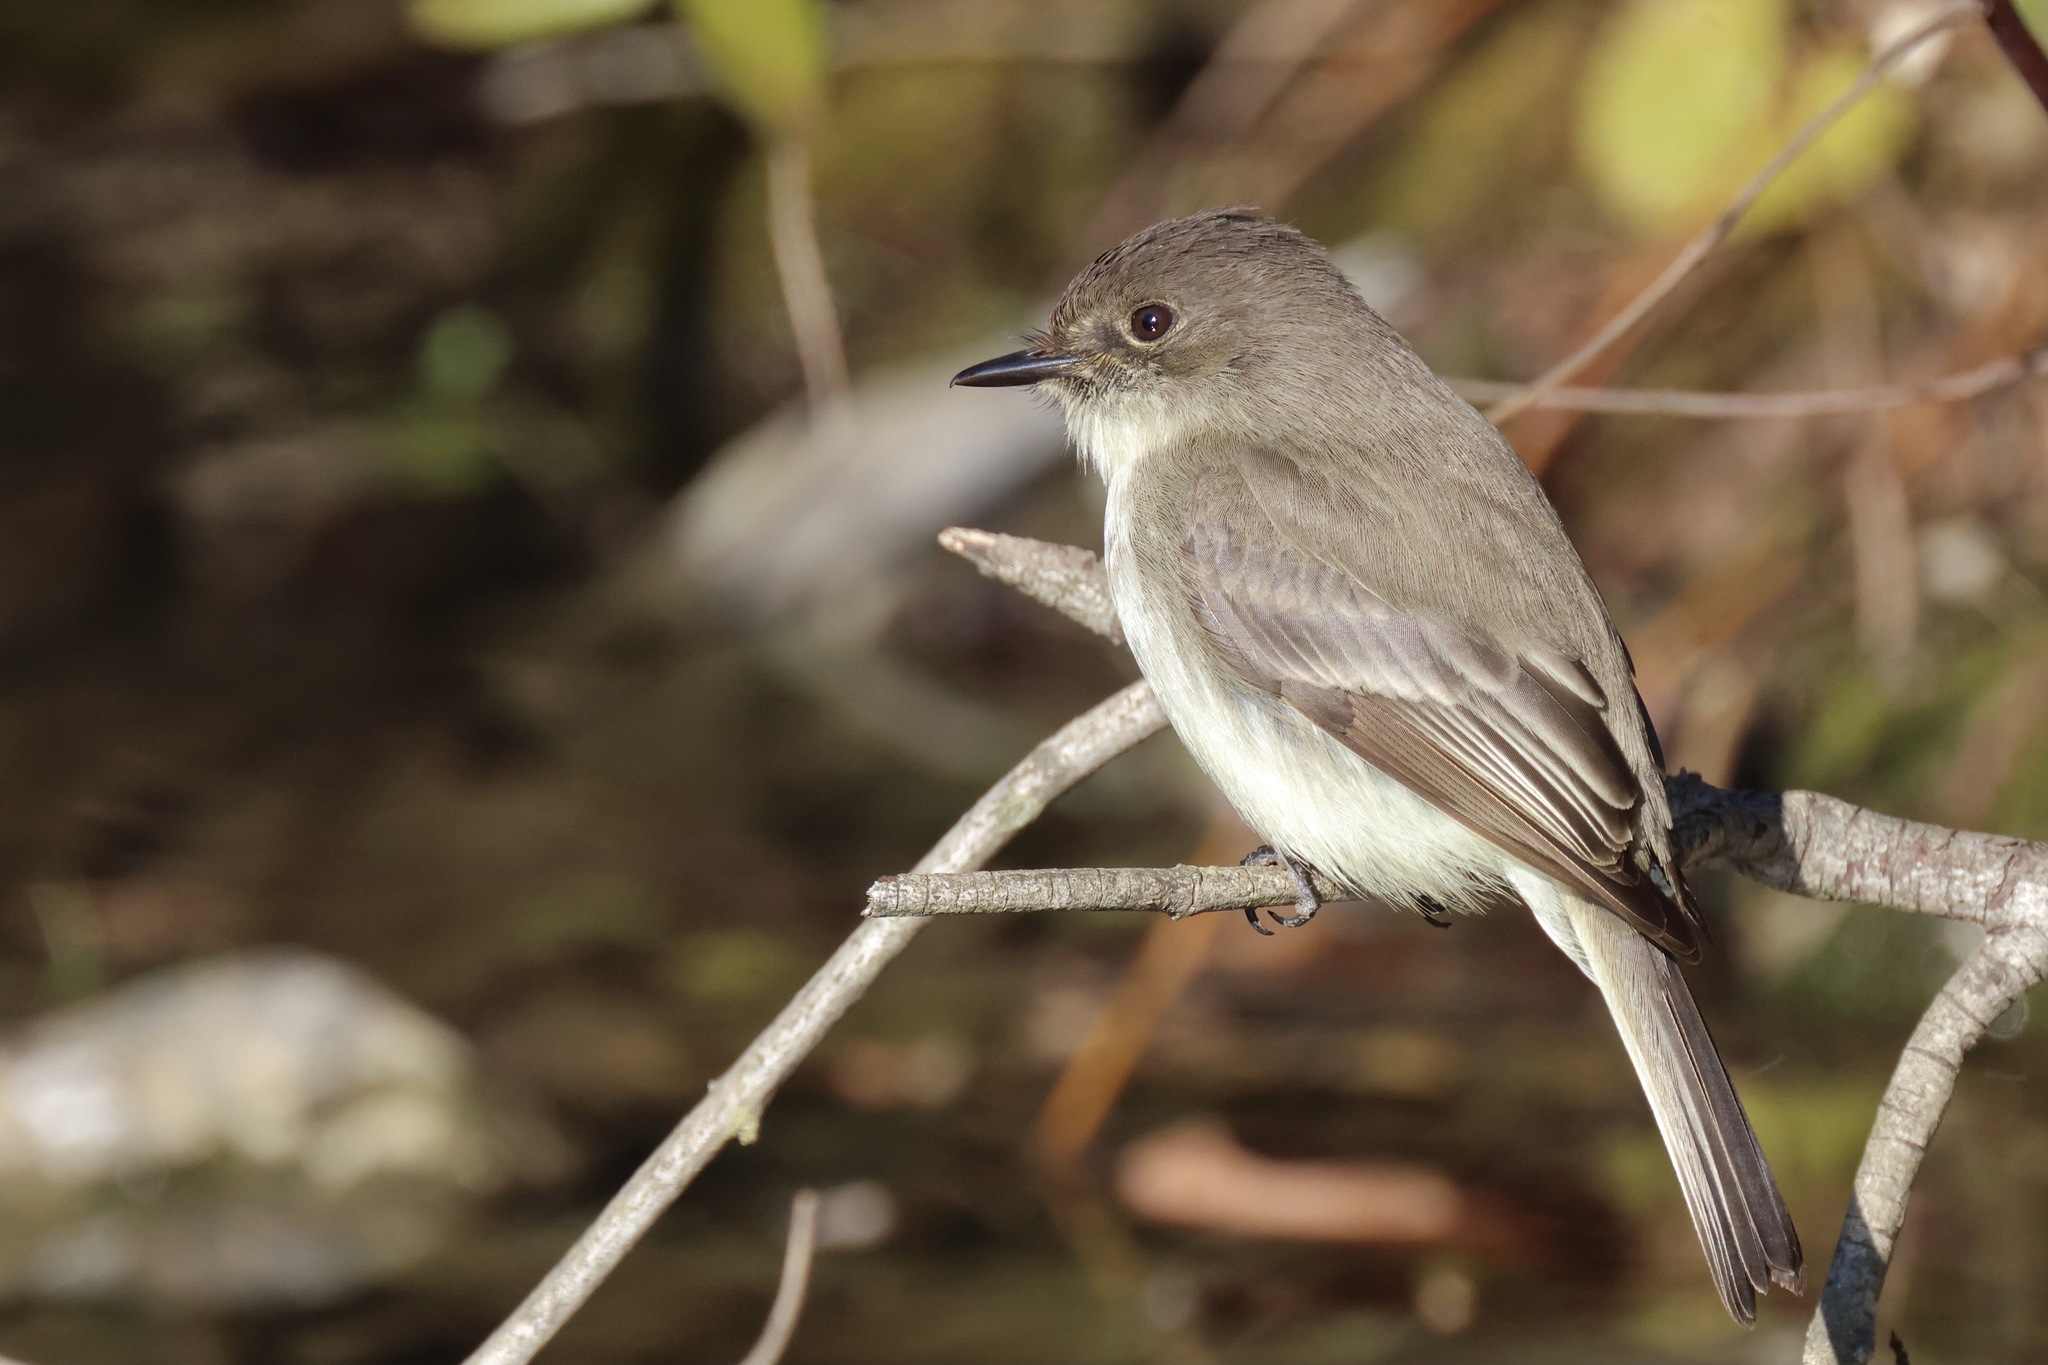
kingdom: Animalia
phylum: Chordata
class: Aves
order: Passeriformes
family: Tyrannidae
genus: Sayornis
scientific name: Sayornis phoebe
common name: Eastern phoebe
